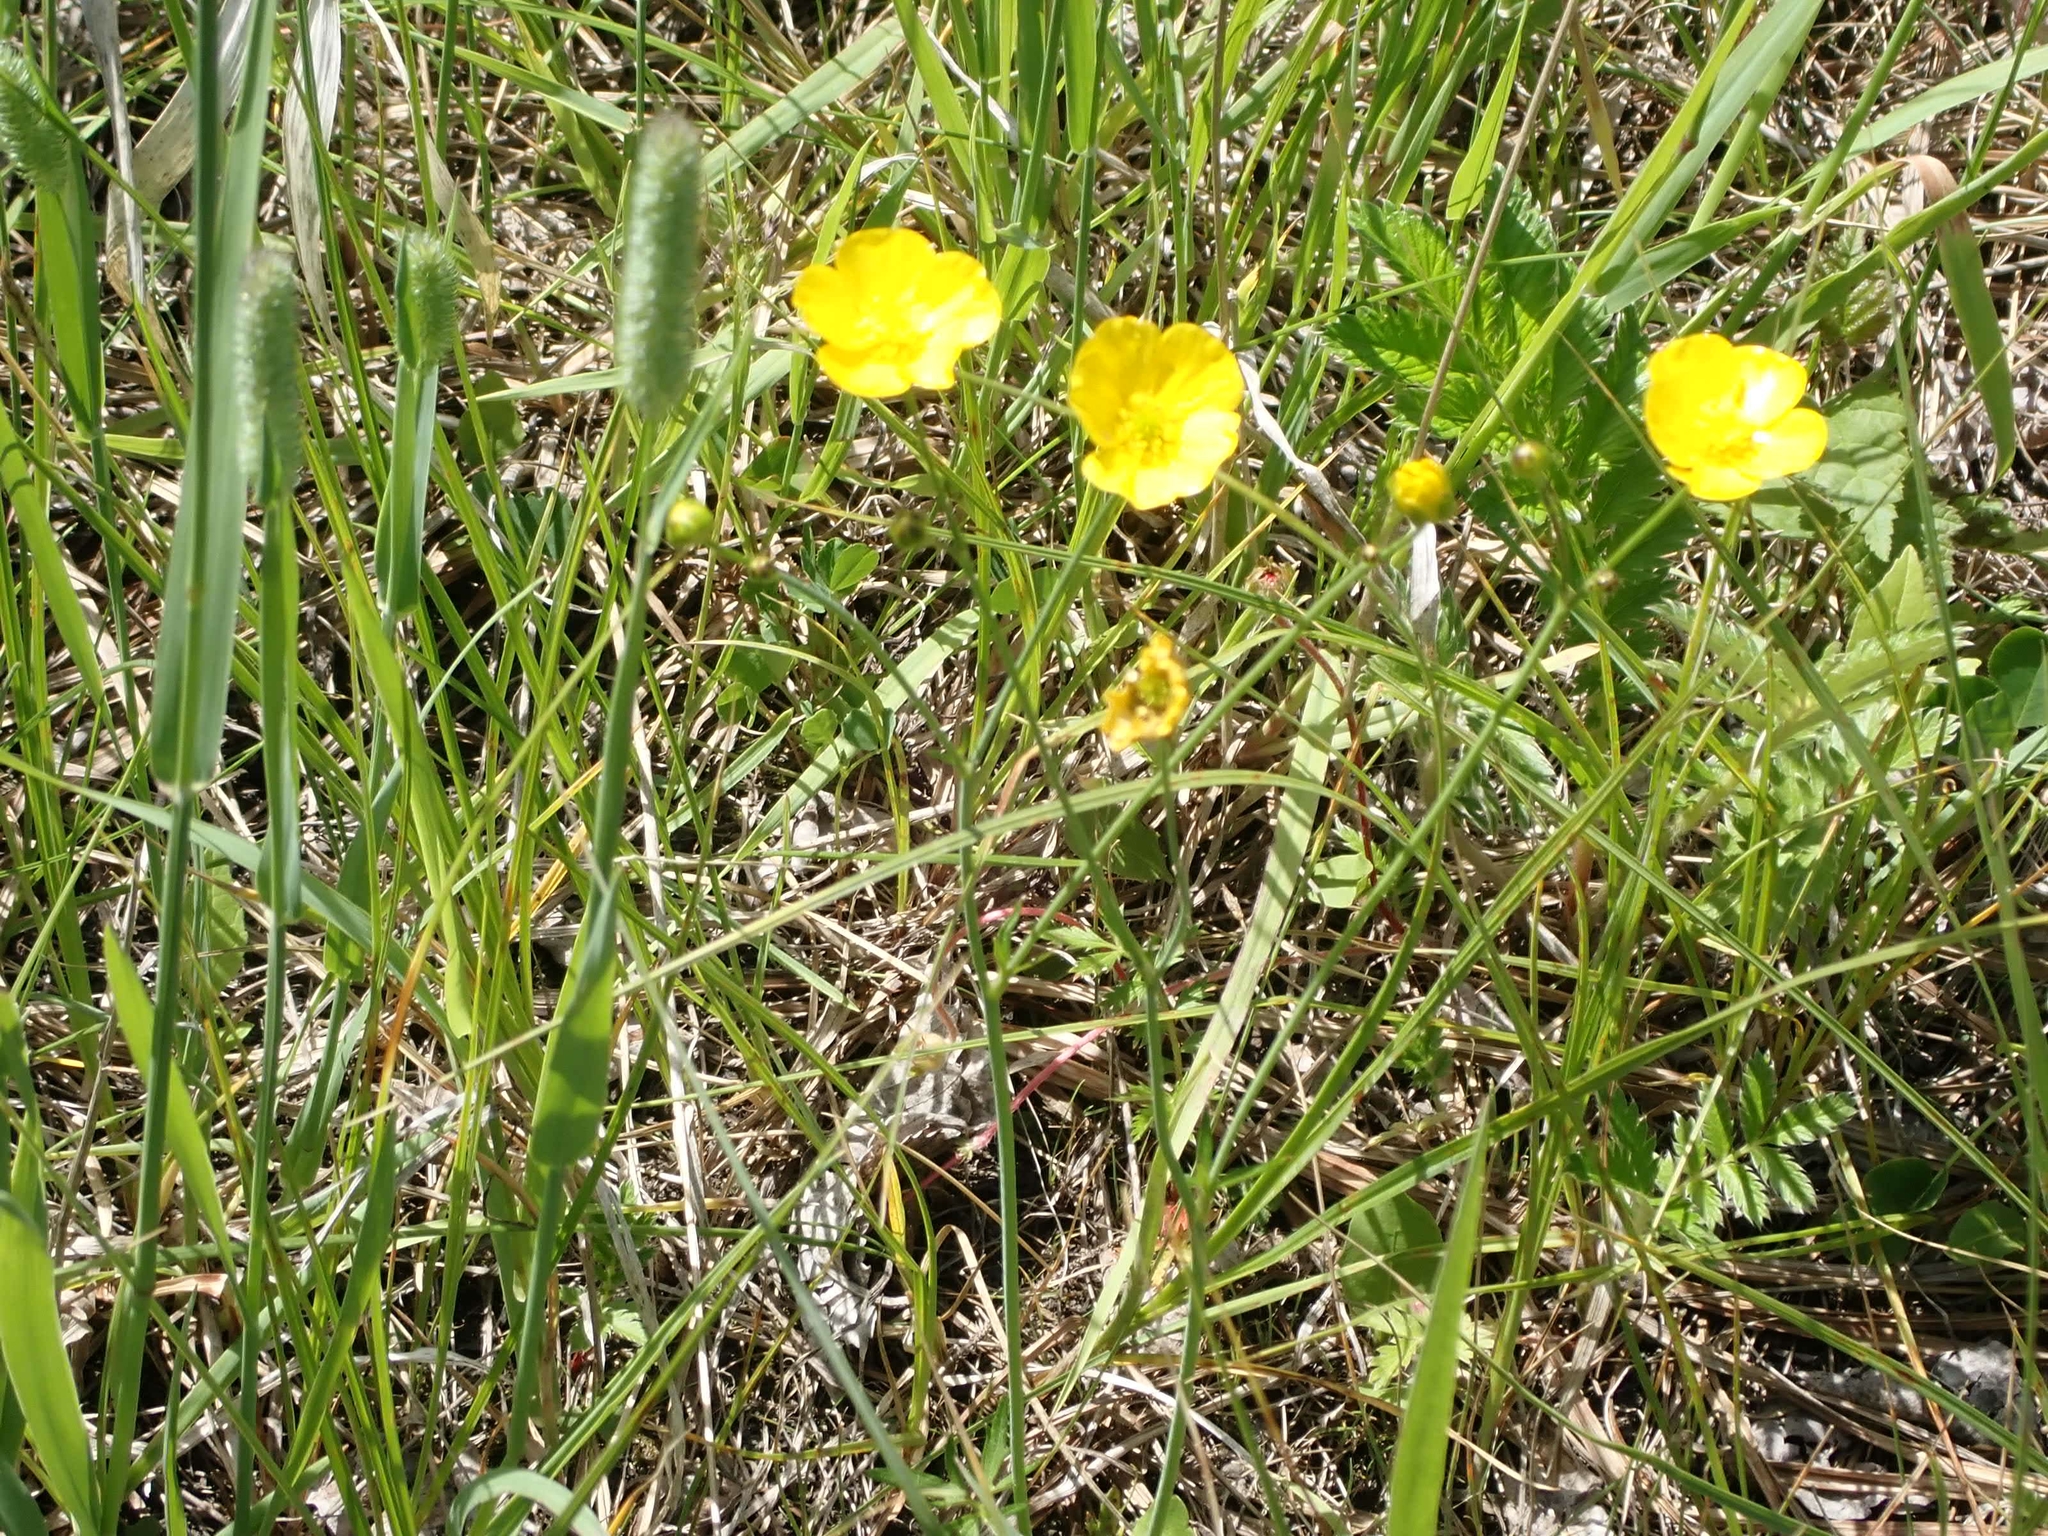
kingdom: Plantae
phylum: Tracheophyta
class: Magnoliopsida
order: Ranunculales
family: Ranunculaceae
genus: Ranunculus
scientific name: Ranunculus acris
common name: Meadow buttercup
